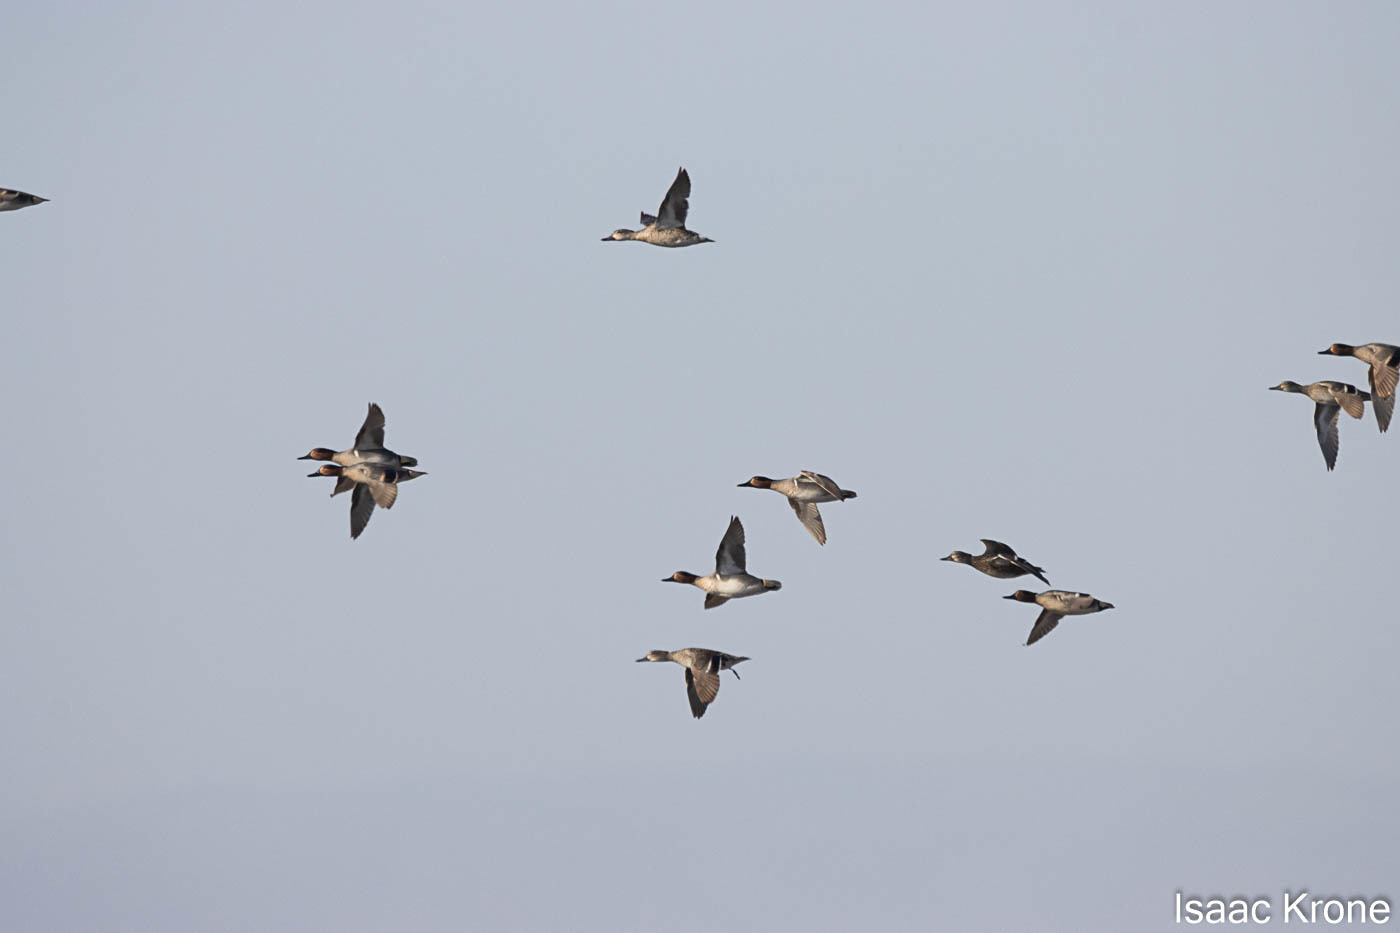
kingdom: Animalia
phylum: Chordata
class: Aves
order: Anseriformes
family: Anatidae
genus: Anas
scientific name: Anas crecca
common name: Eurasian teal
